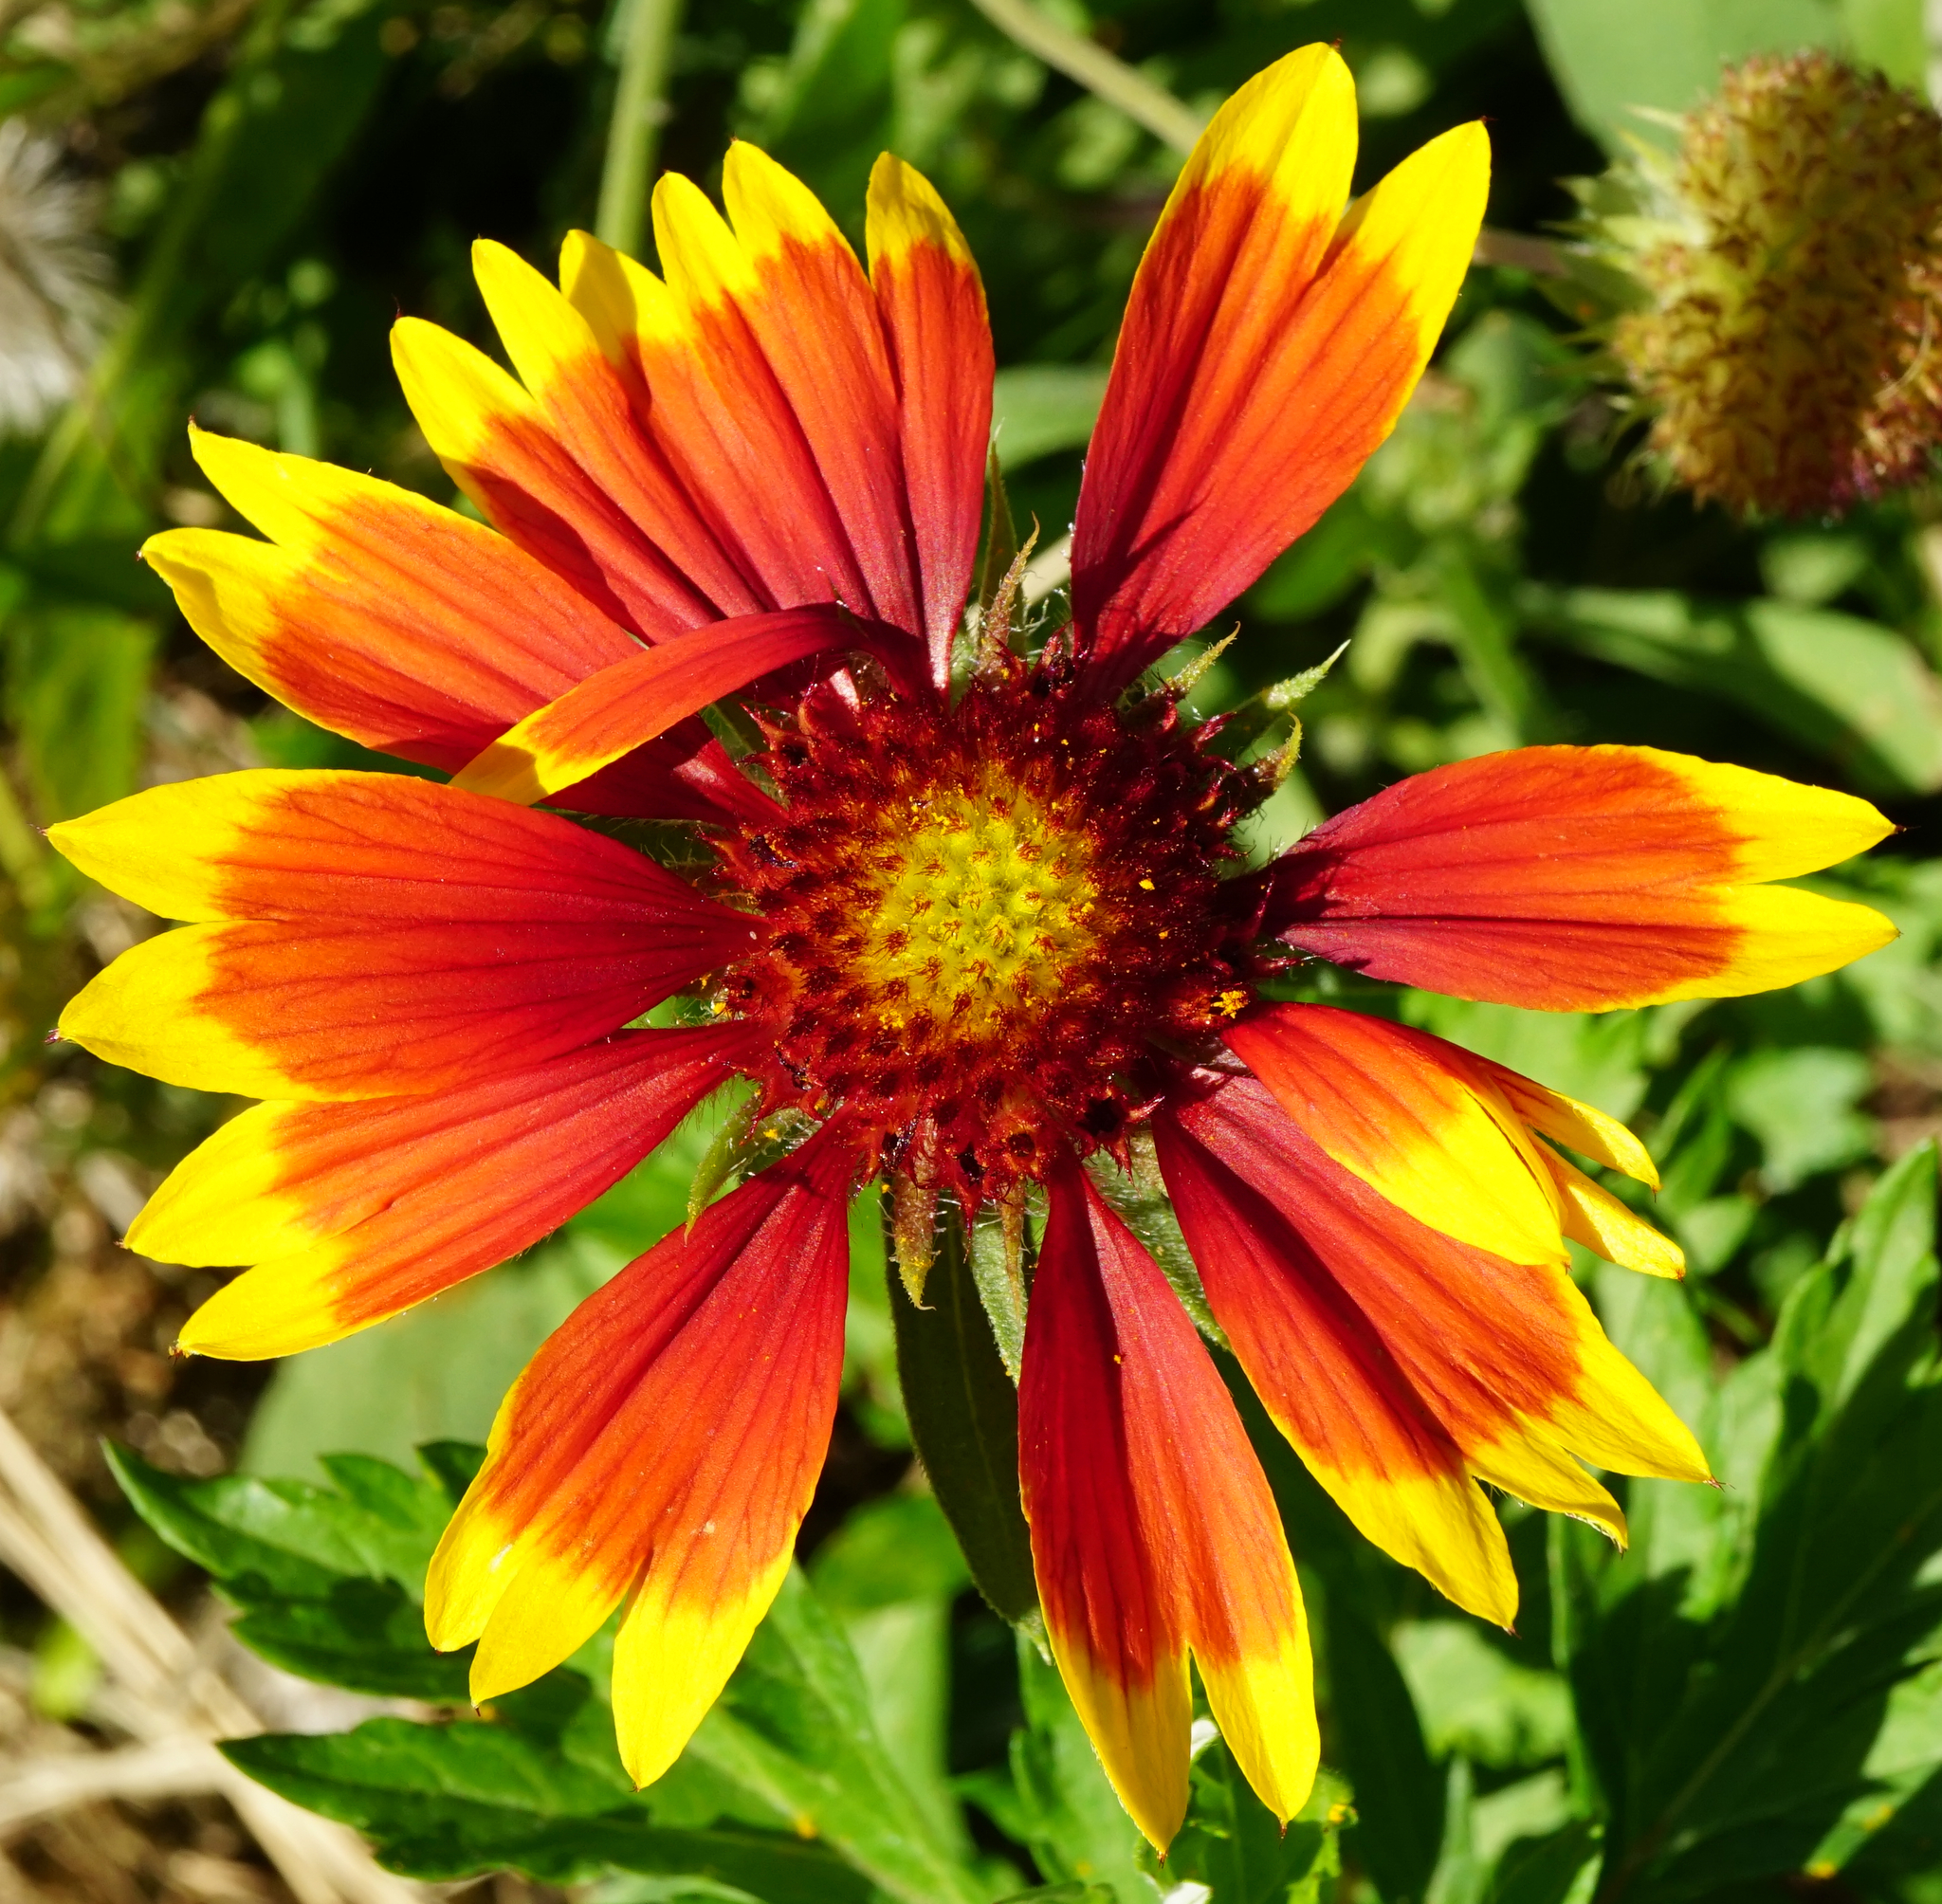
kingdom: Plantae
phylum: Tracheophyta
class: Magnoliopsida
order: Asterales
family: Asteraceae
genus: Gaillardia
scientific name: Gaillardia grandiflora
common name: Blanket flower
